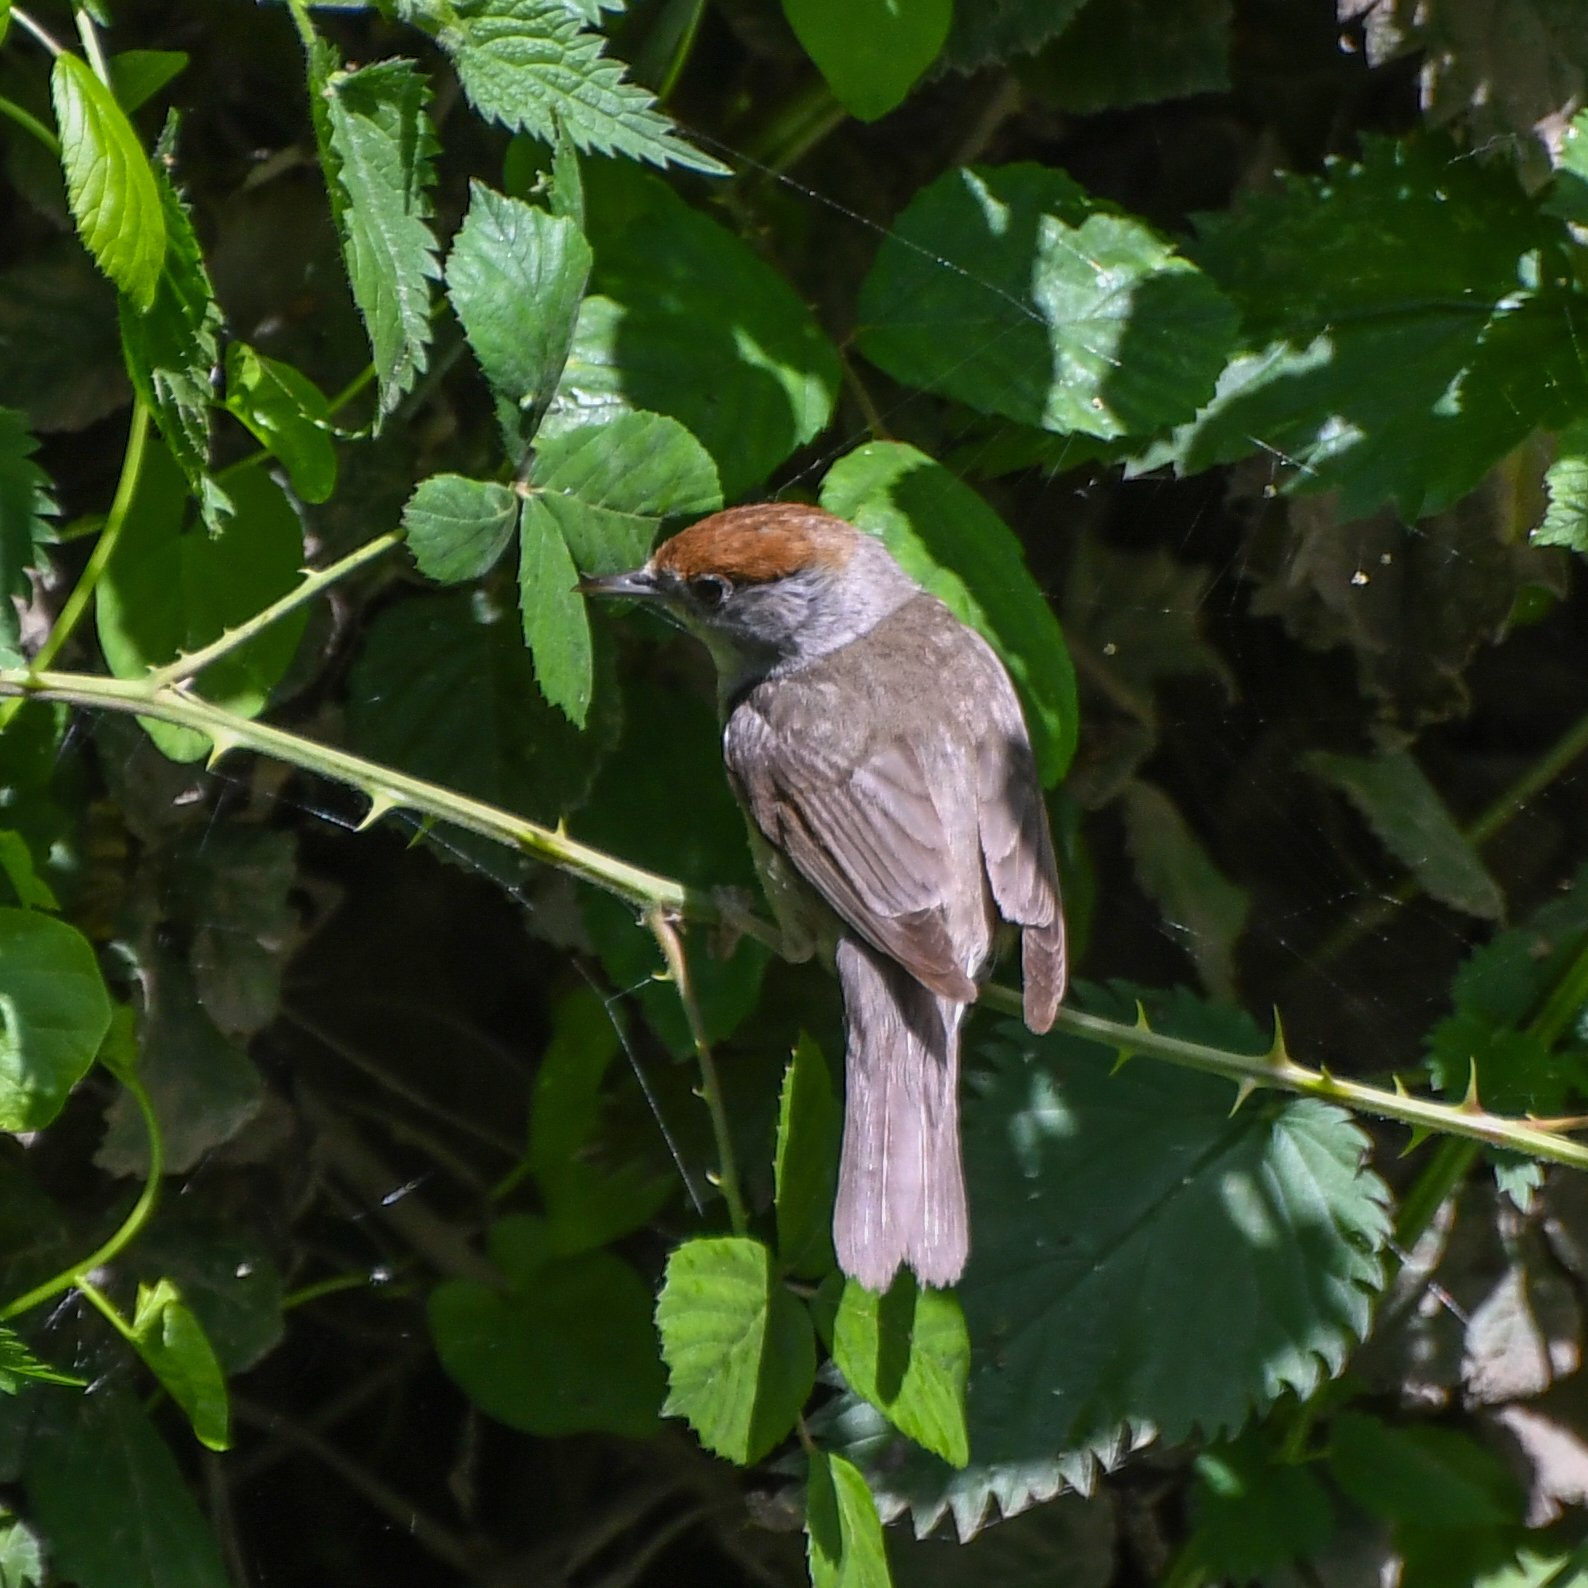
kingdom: Animalia
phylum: Chordata
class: Aves
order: Passeriformes
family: Sylviidae
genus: Sylvia
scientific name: Sylvia atricapilla
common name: Eurasian blackcap
